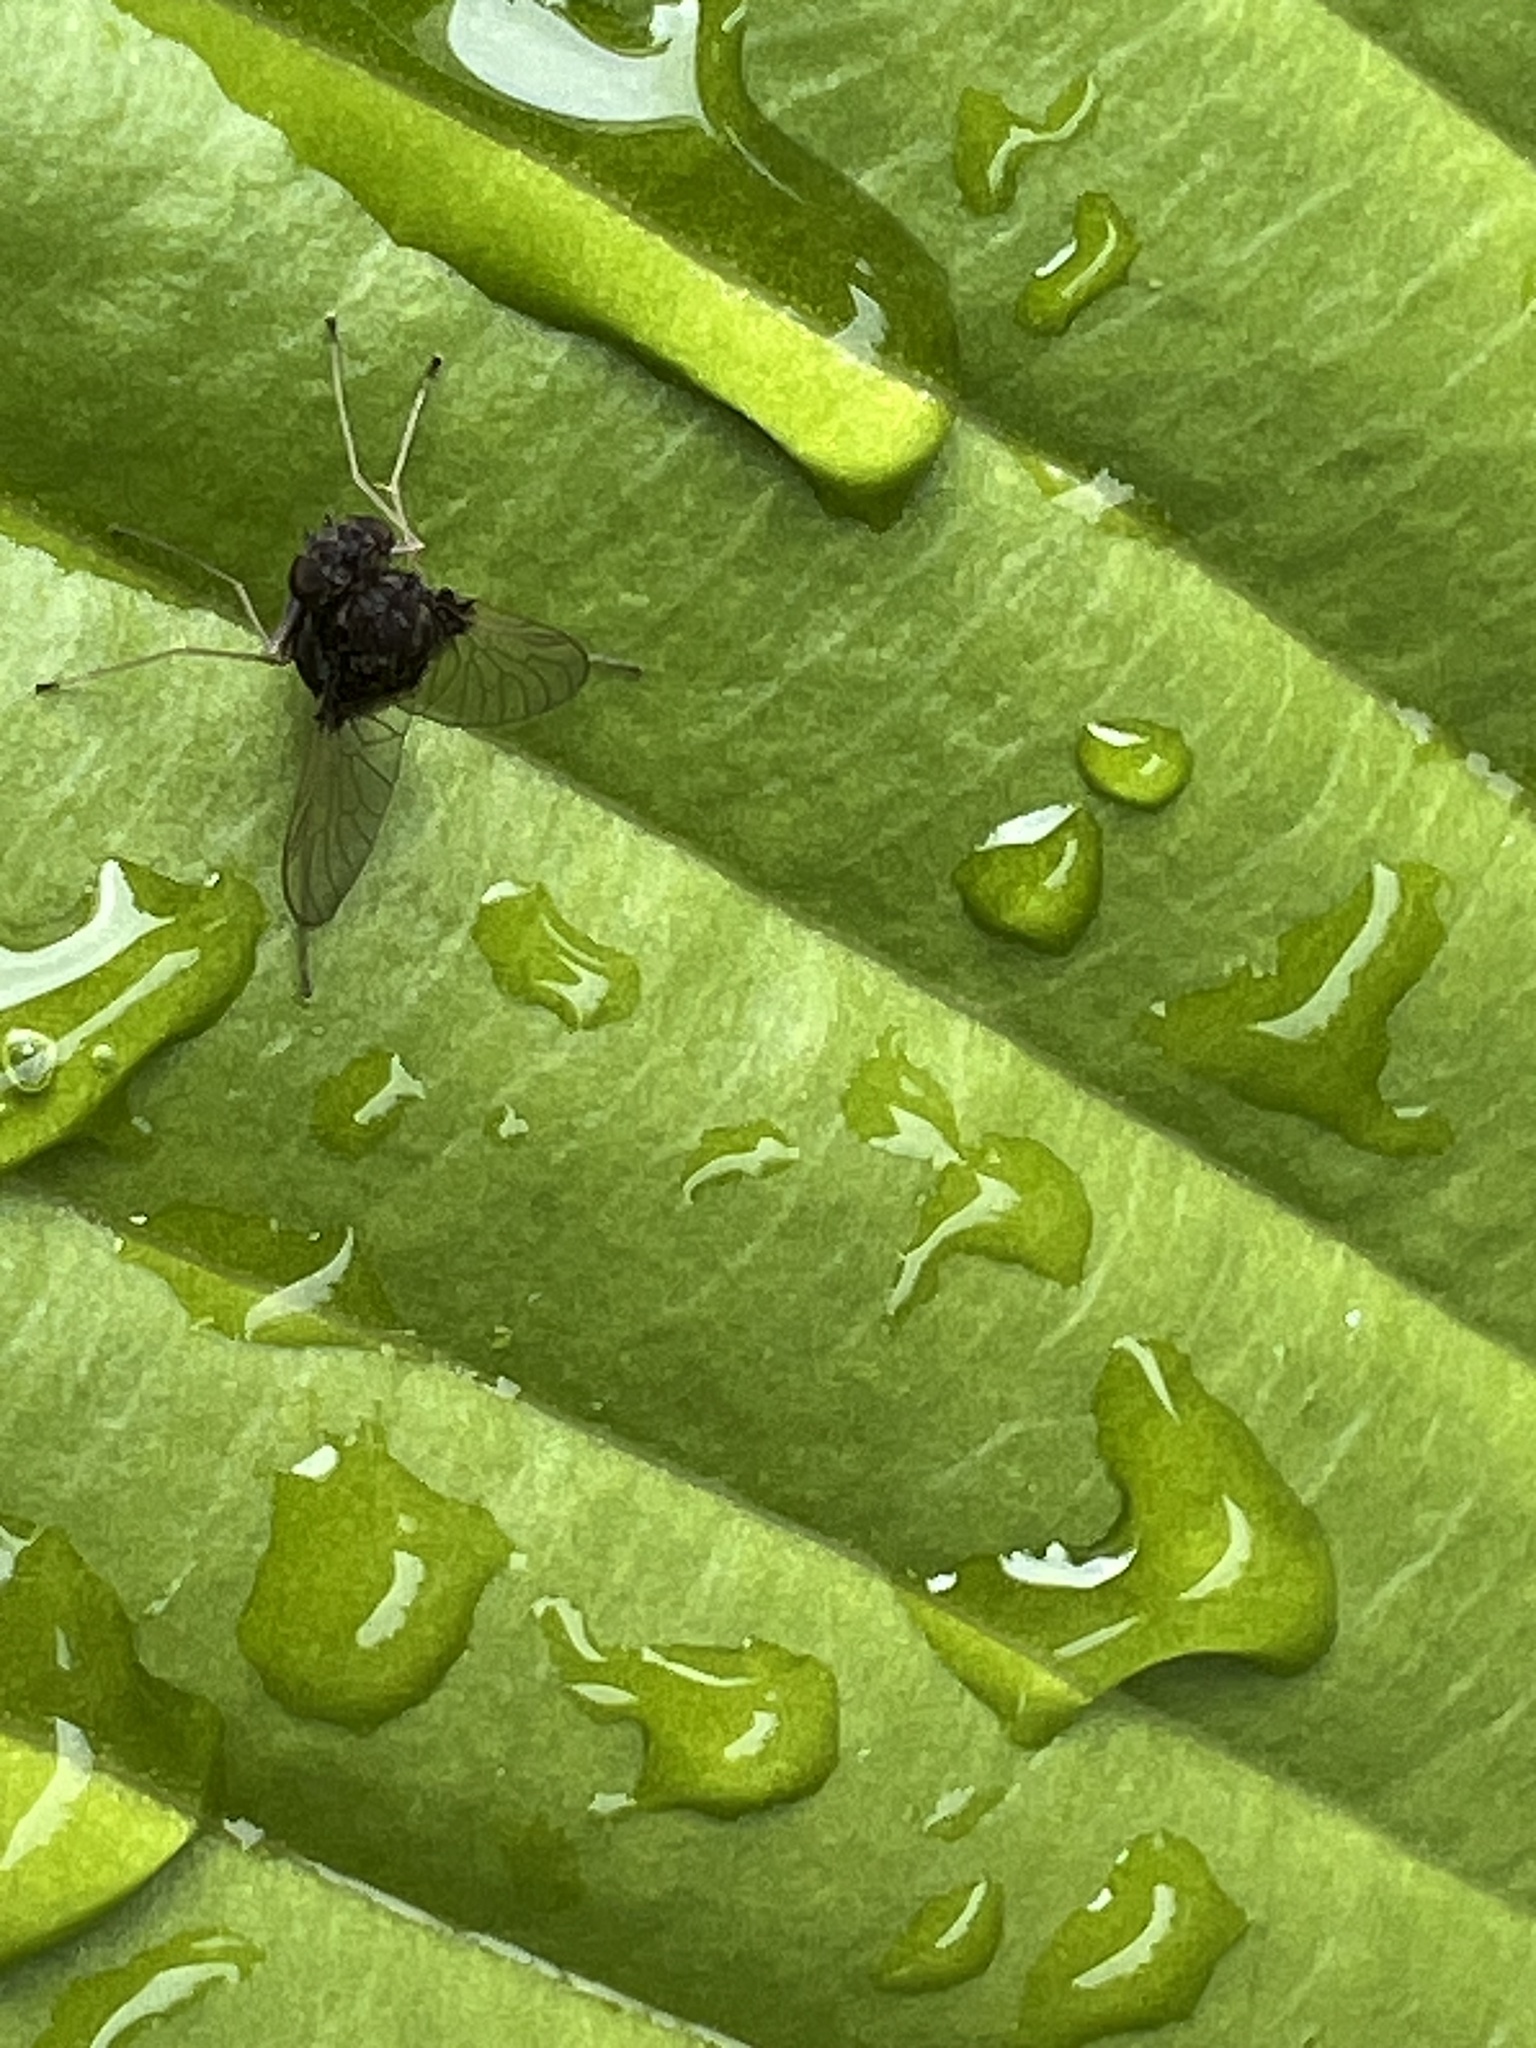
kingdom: Animalia
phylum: Arthropoda
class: Insecta
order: Diptera
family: Rhagionidae
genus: Chrysopilus
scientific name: Chrysopilus basilaris
